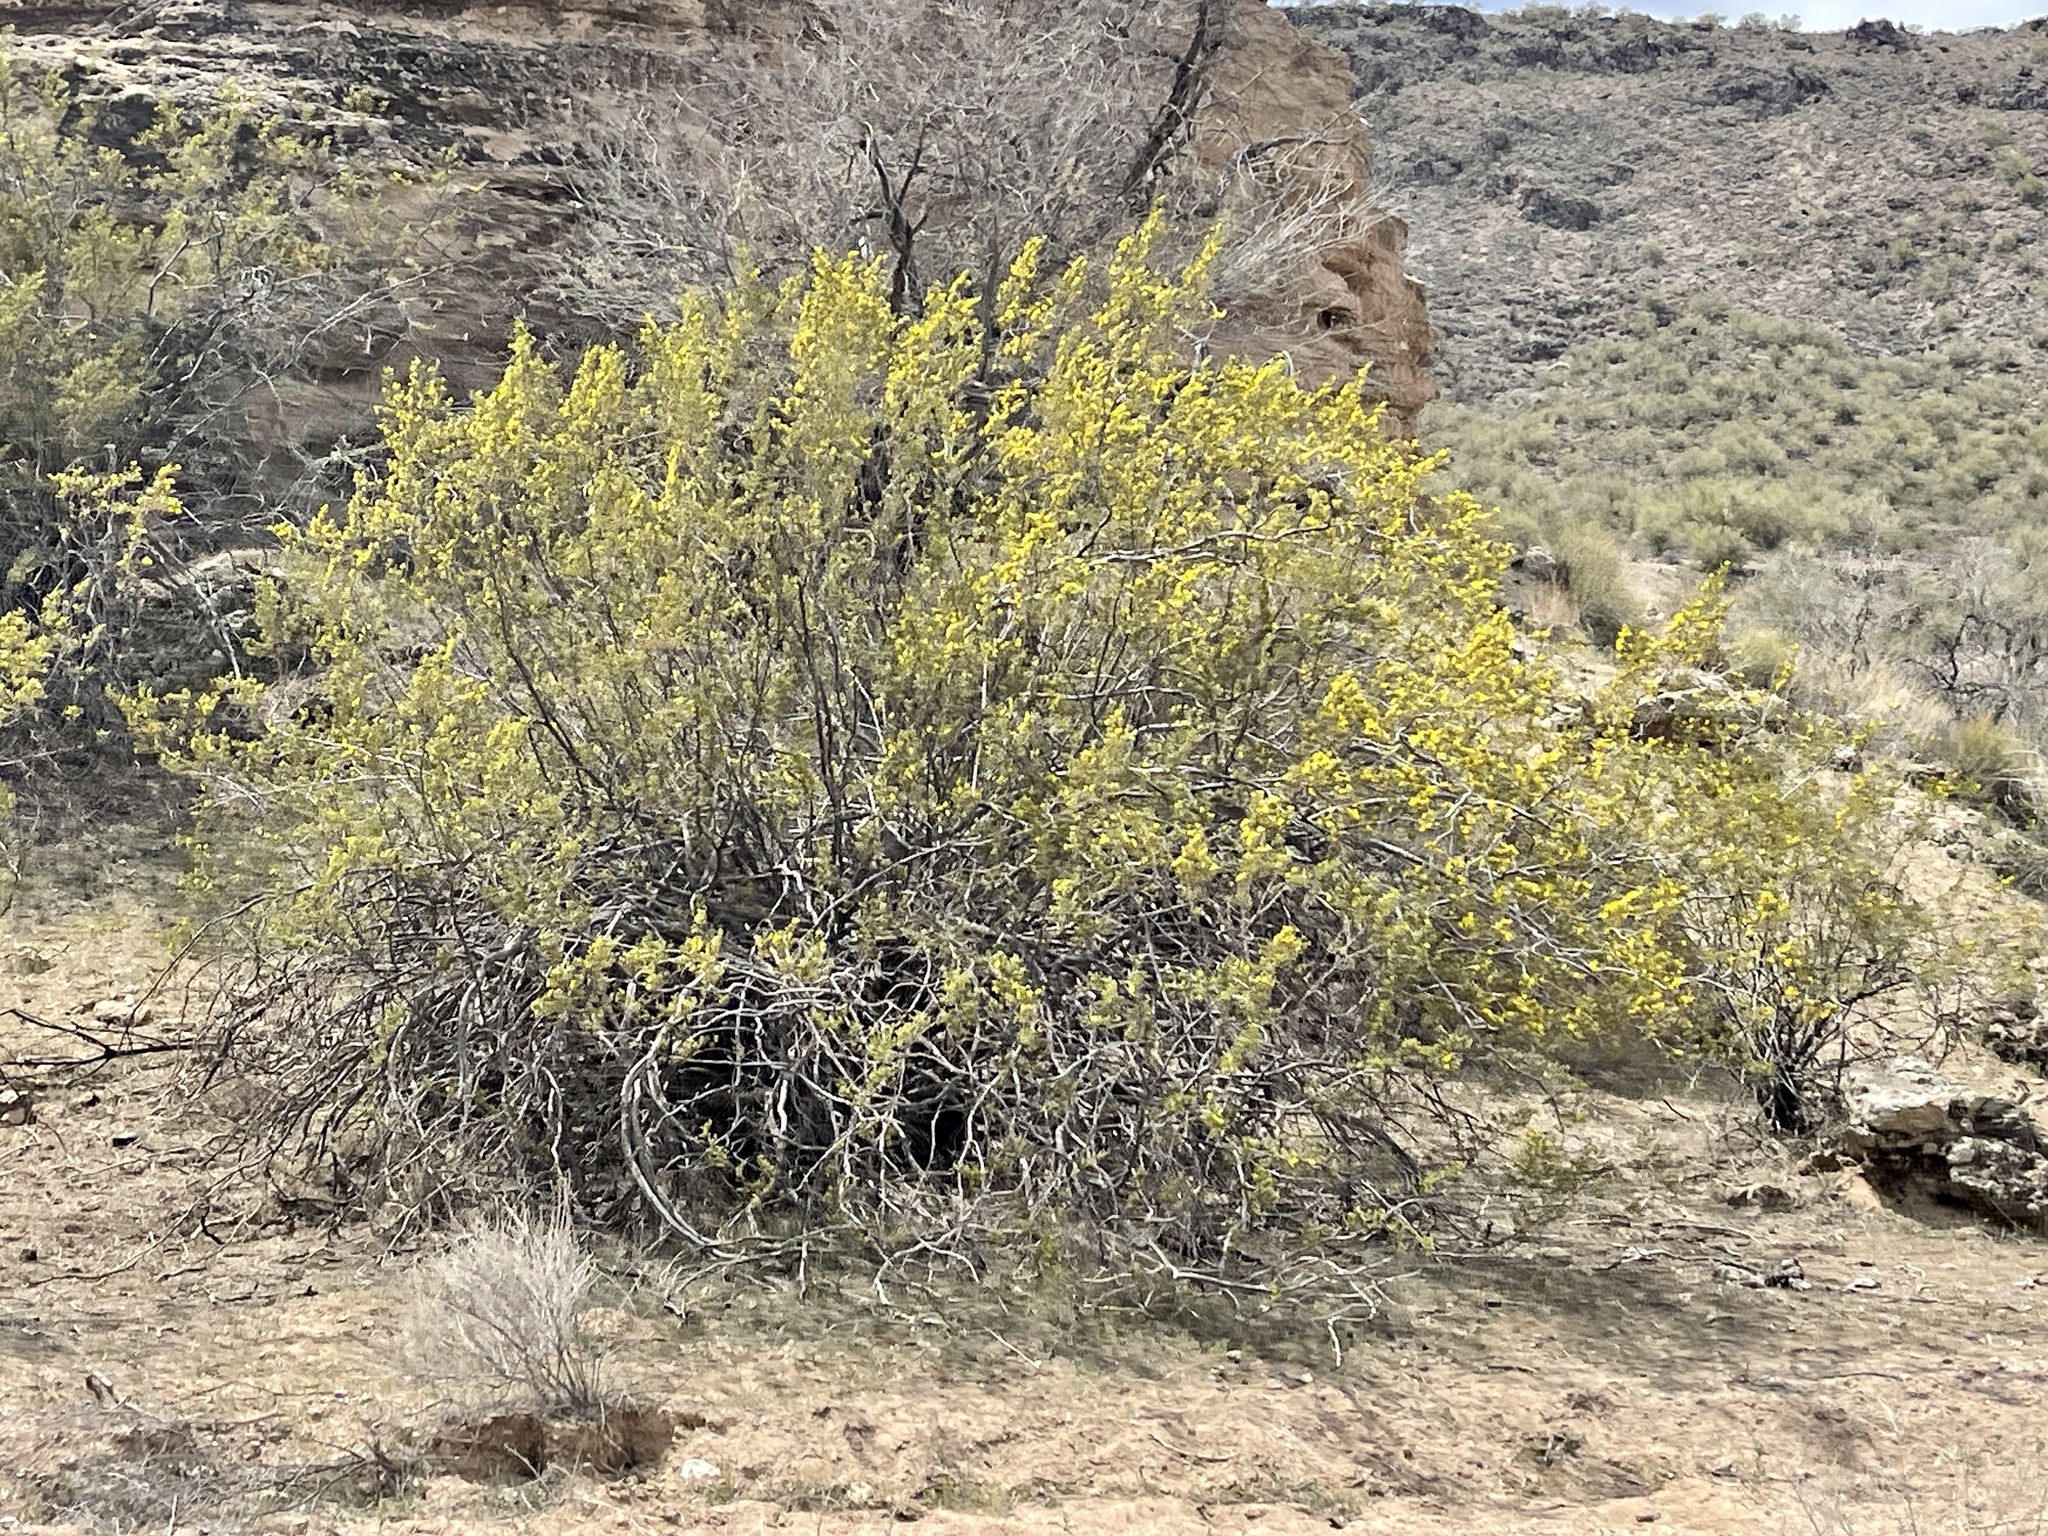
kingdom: Plantae
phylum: Tracheophyta
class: Magnoliopsida
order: Zygophyllales
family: Zygophyllaceae
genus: Larrea
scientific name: Larrea tridentata
